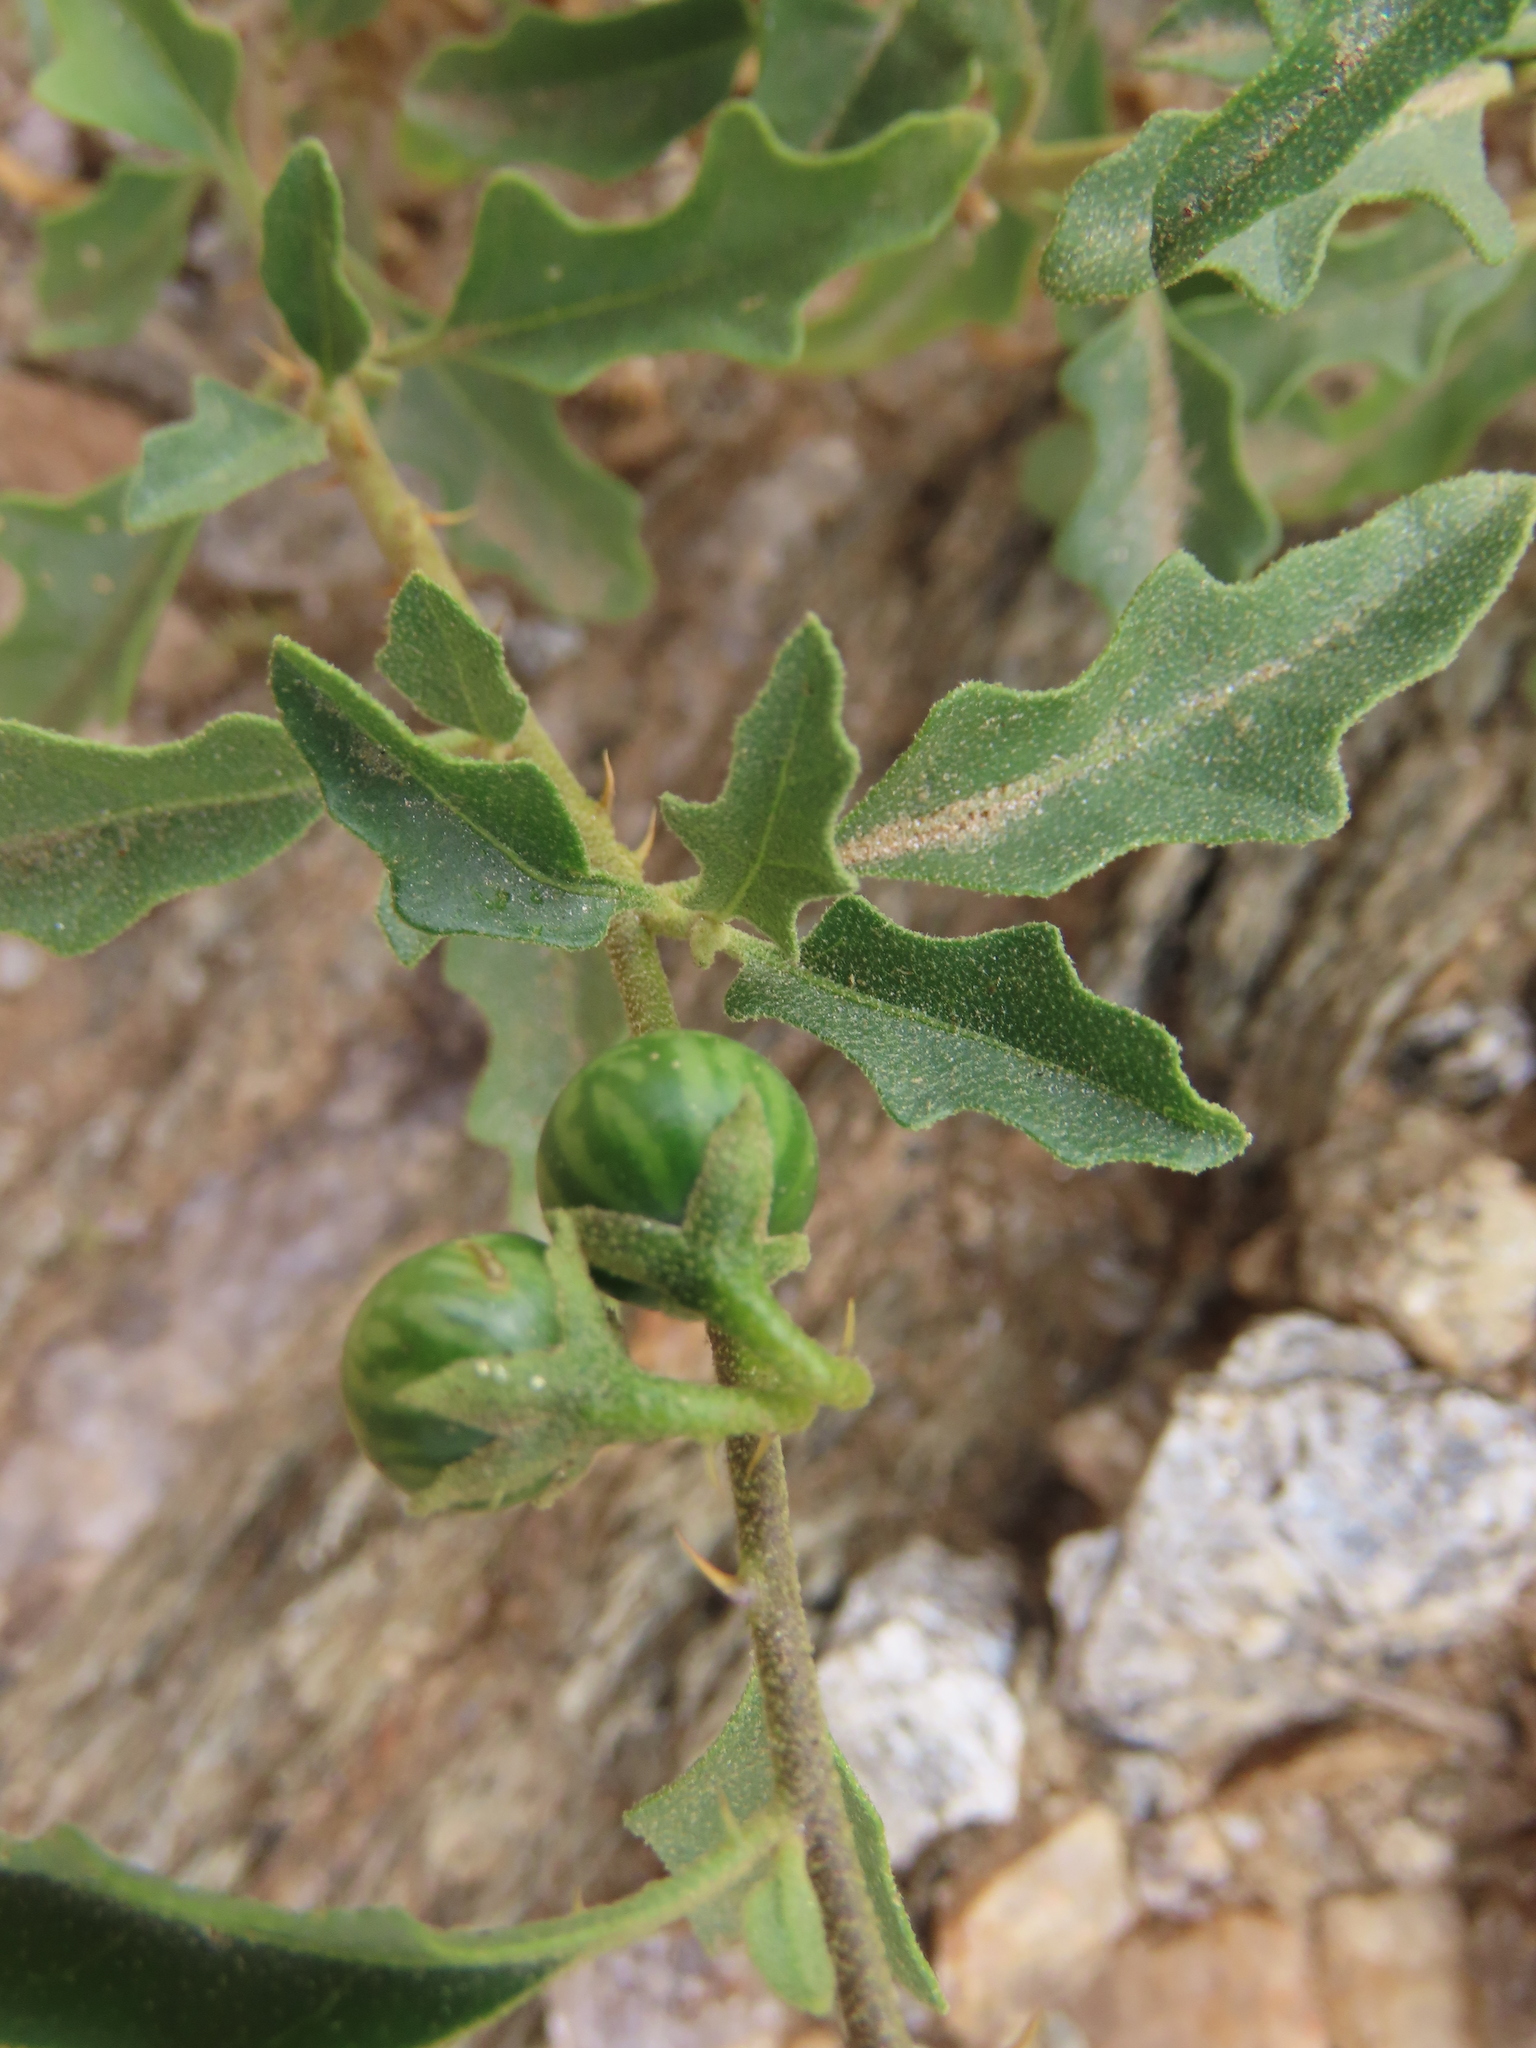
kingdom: Plantae
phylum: Tracheophyta
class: Magnoliopsida
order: Solanales
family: Solanaceae
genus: Solanum
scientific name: Solanum capense
